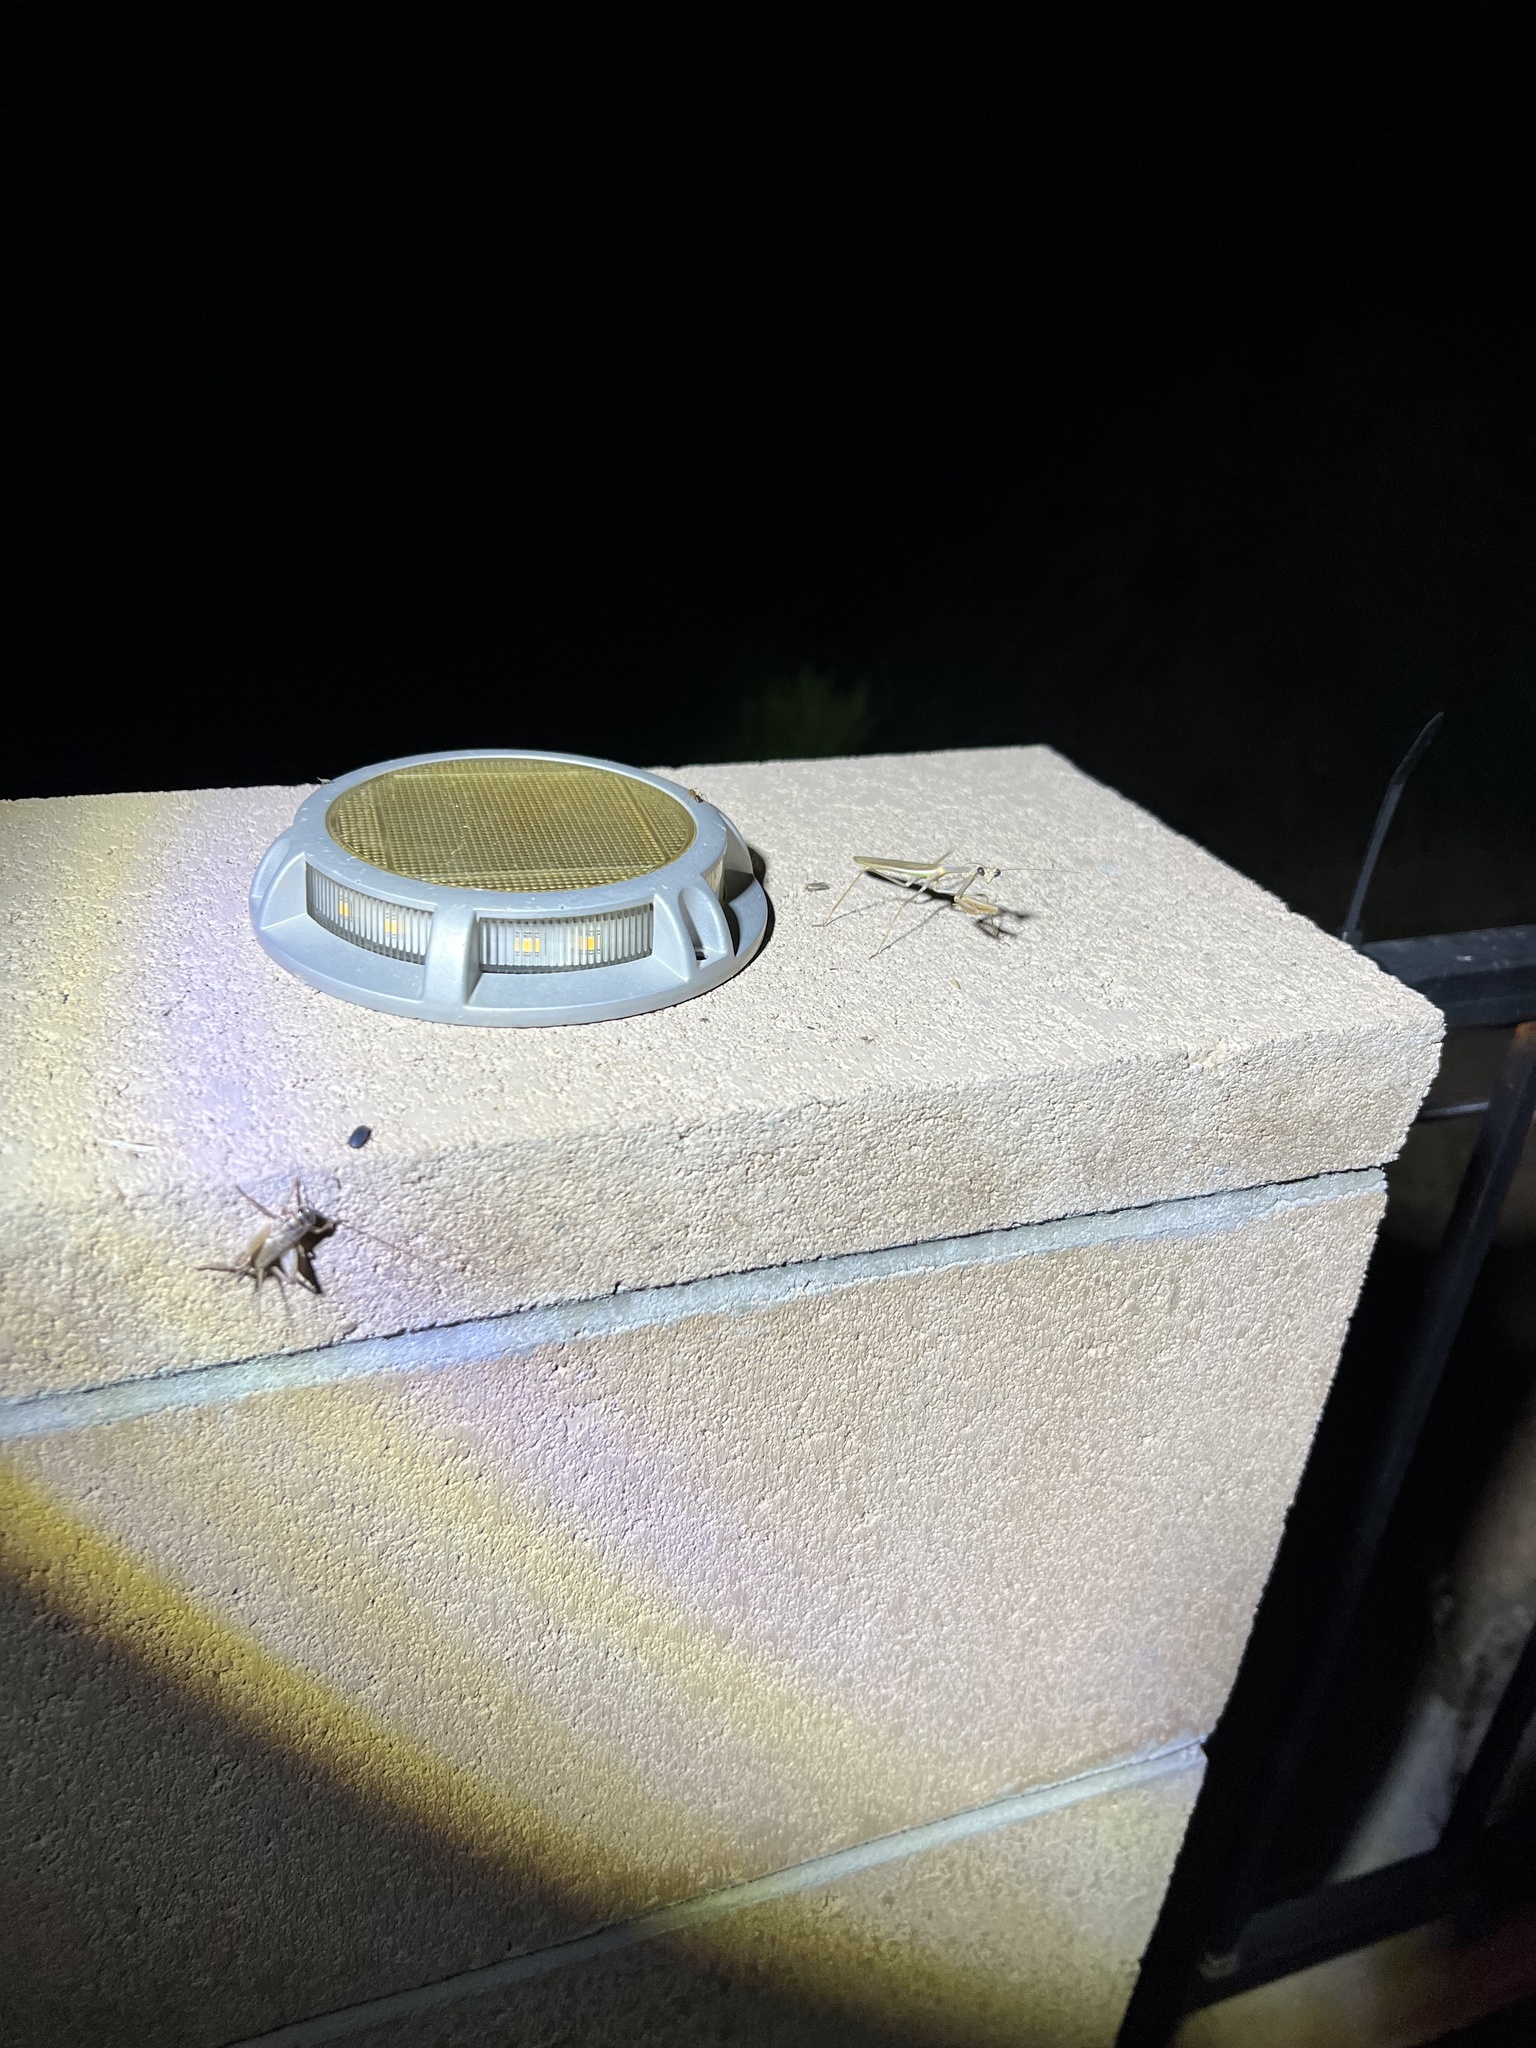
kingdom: Animalia
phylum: Arthropoda
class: Insecta
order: Mantodea
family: Mantidae
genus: Stagmomantis
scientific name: Stagmomantis gracilipes
